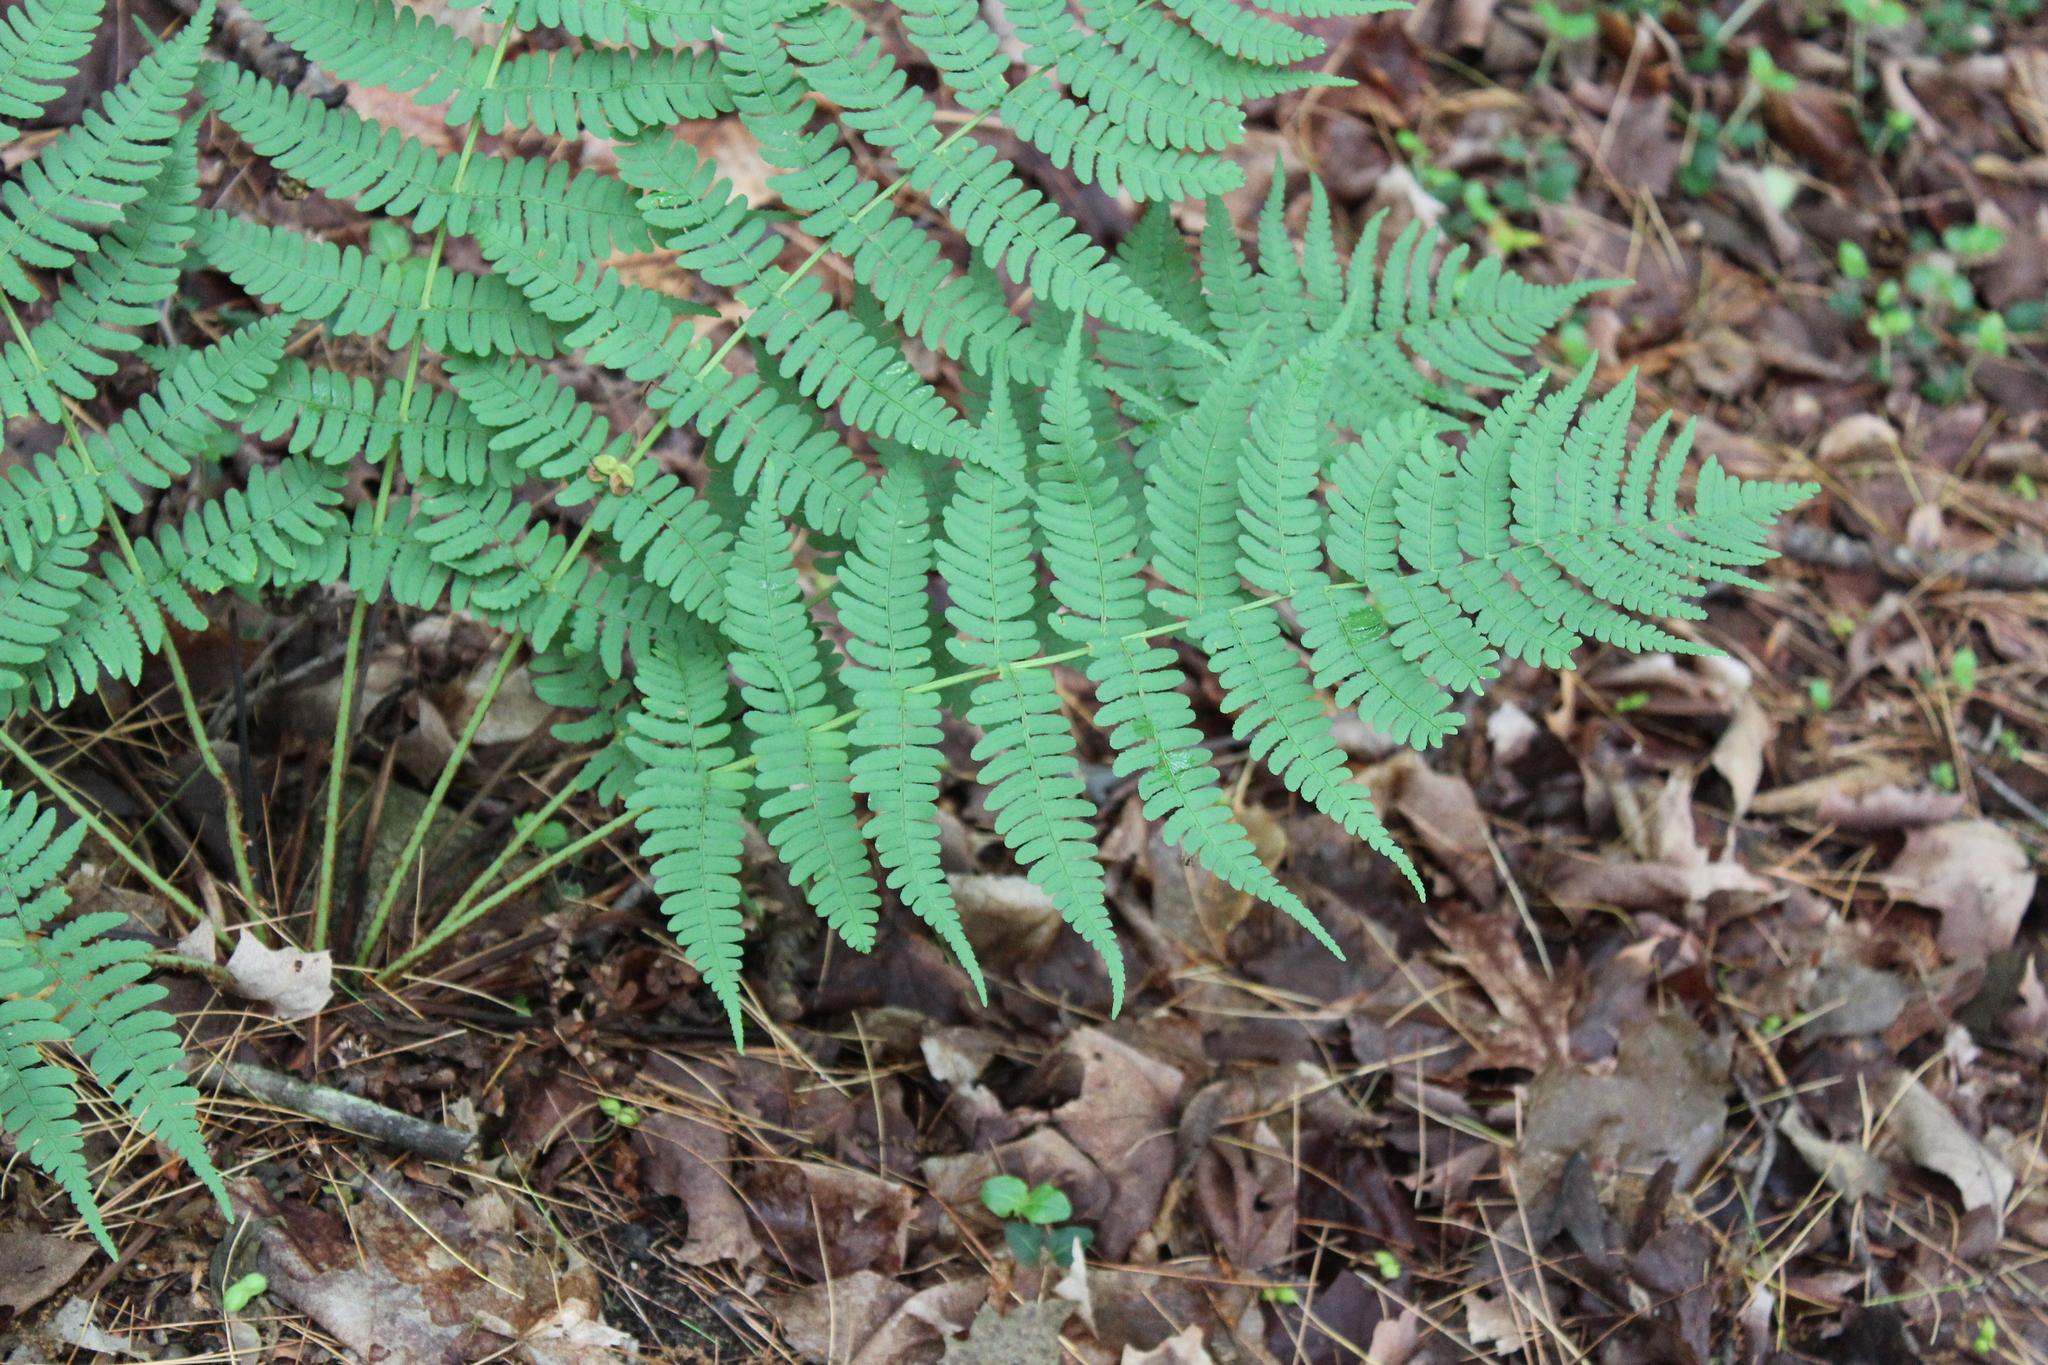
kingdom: Plantae
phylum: Tracheophyta
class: Polypodiopsida
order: Polypodiales
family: Dryopteridaceae
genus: Dryopteris
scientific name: Dryopteris marginalis
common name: Marginal wood fern
